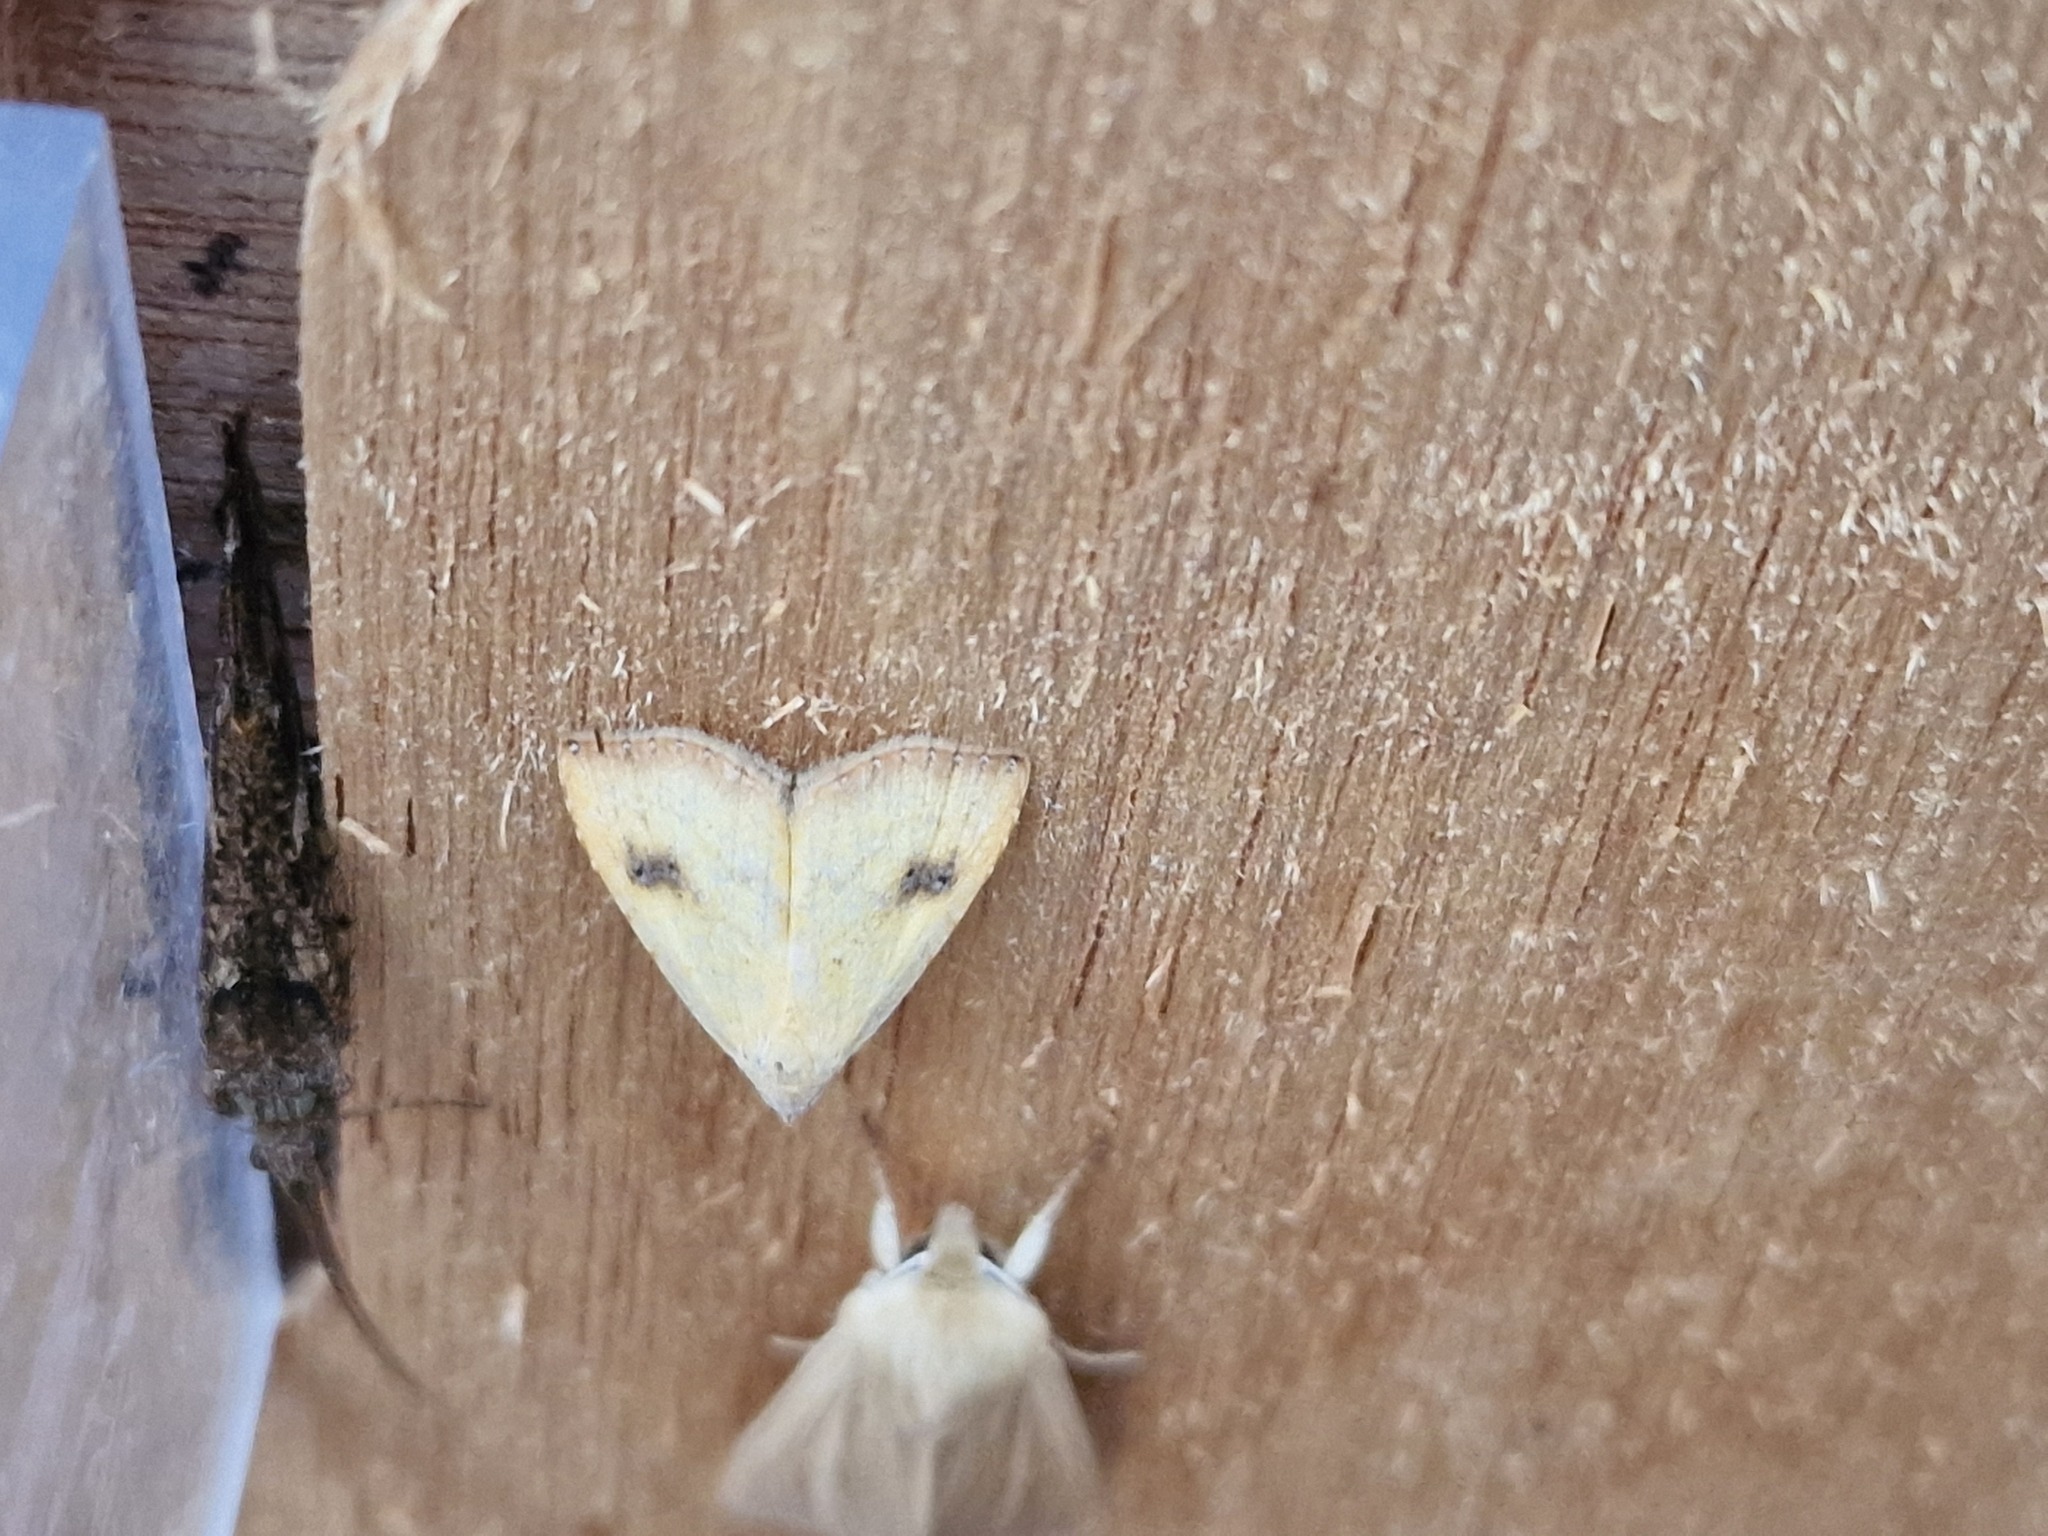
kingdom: Animalia
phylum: Arthropoda
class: Insecta
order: Lepidoptera
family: Erebidae
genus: Rivula
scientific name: Rivula sericealis
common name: Straw dot
